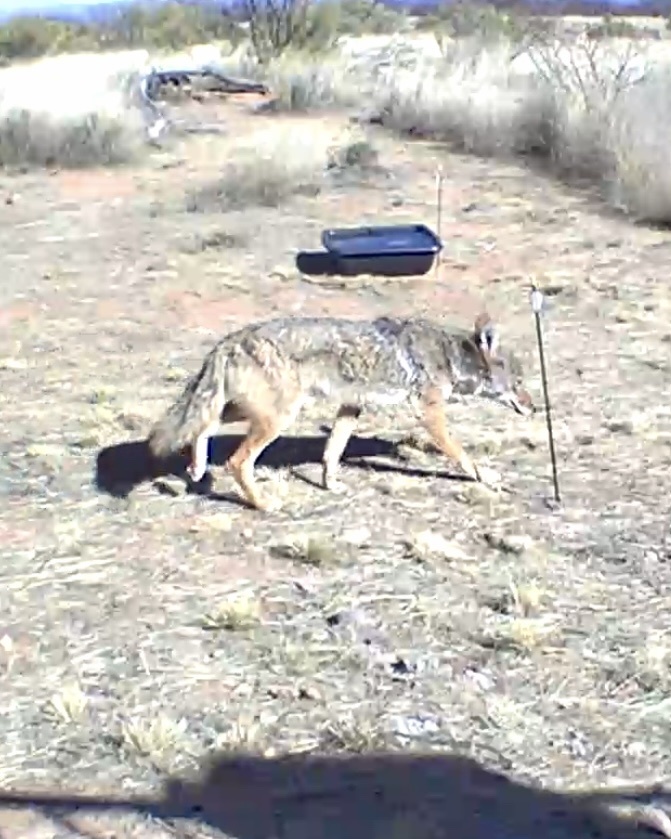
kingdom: Animalia
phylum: Chordata
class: Mammalia
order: Carnivora
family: Canidae
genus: Canis
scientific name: Canis latrans
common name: Coyote
